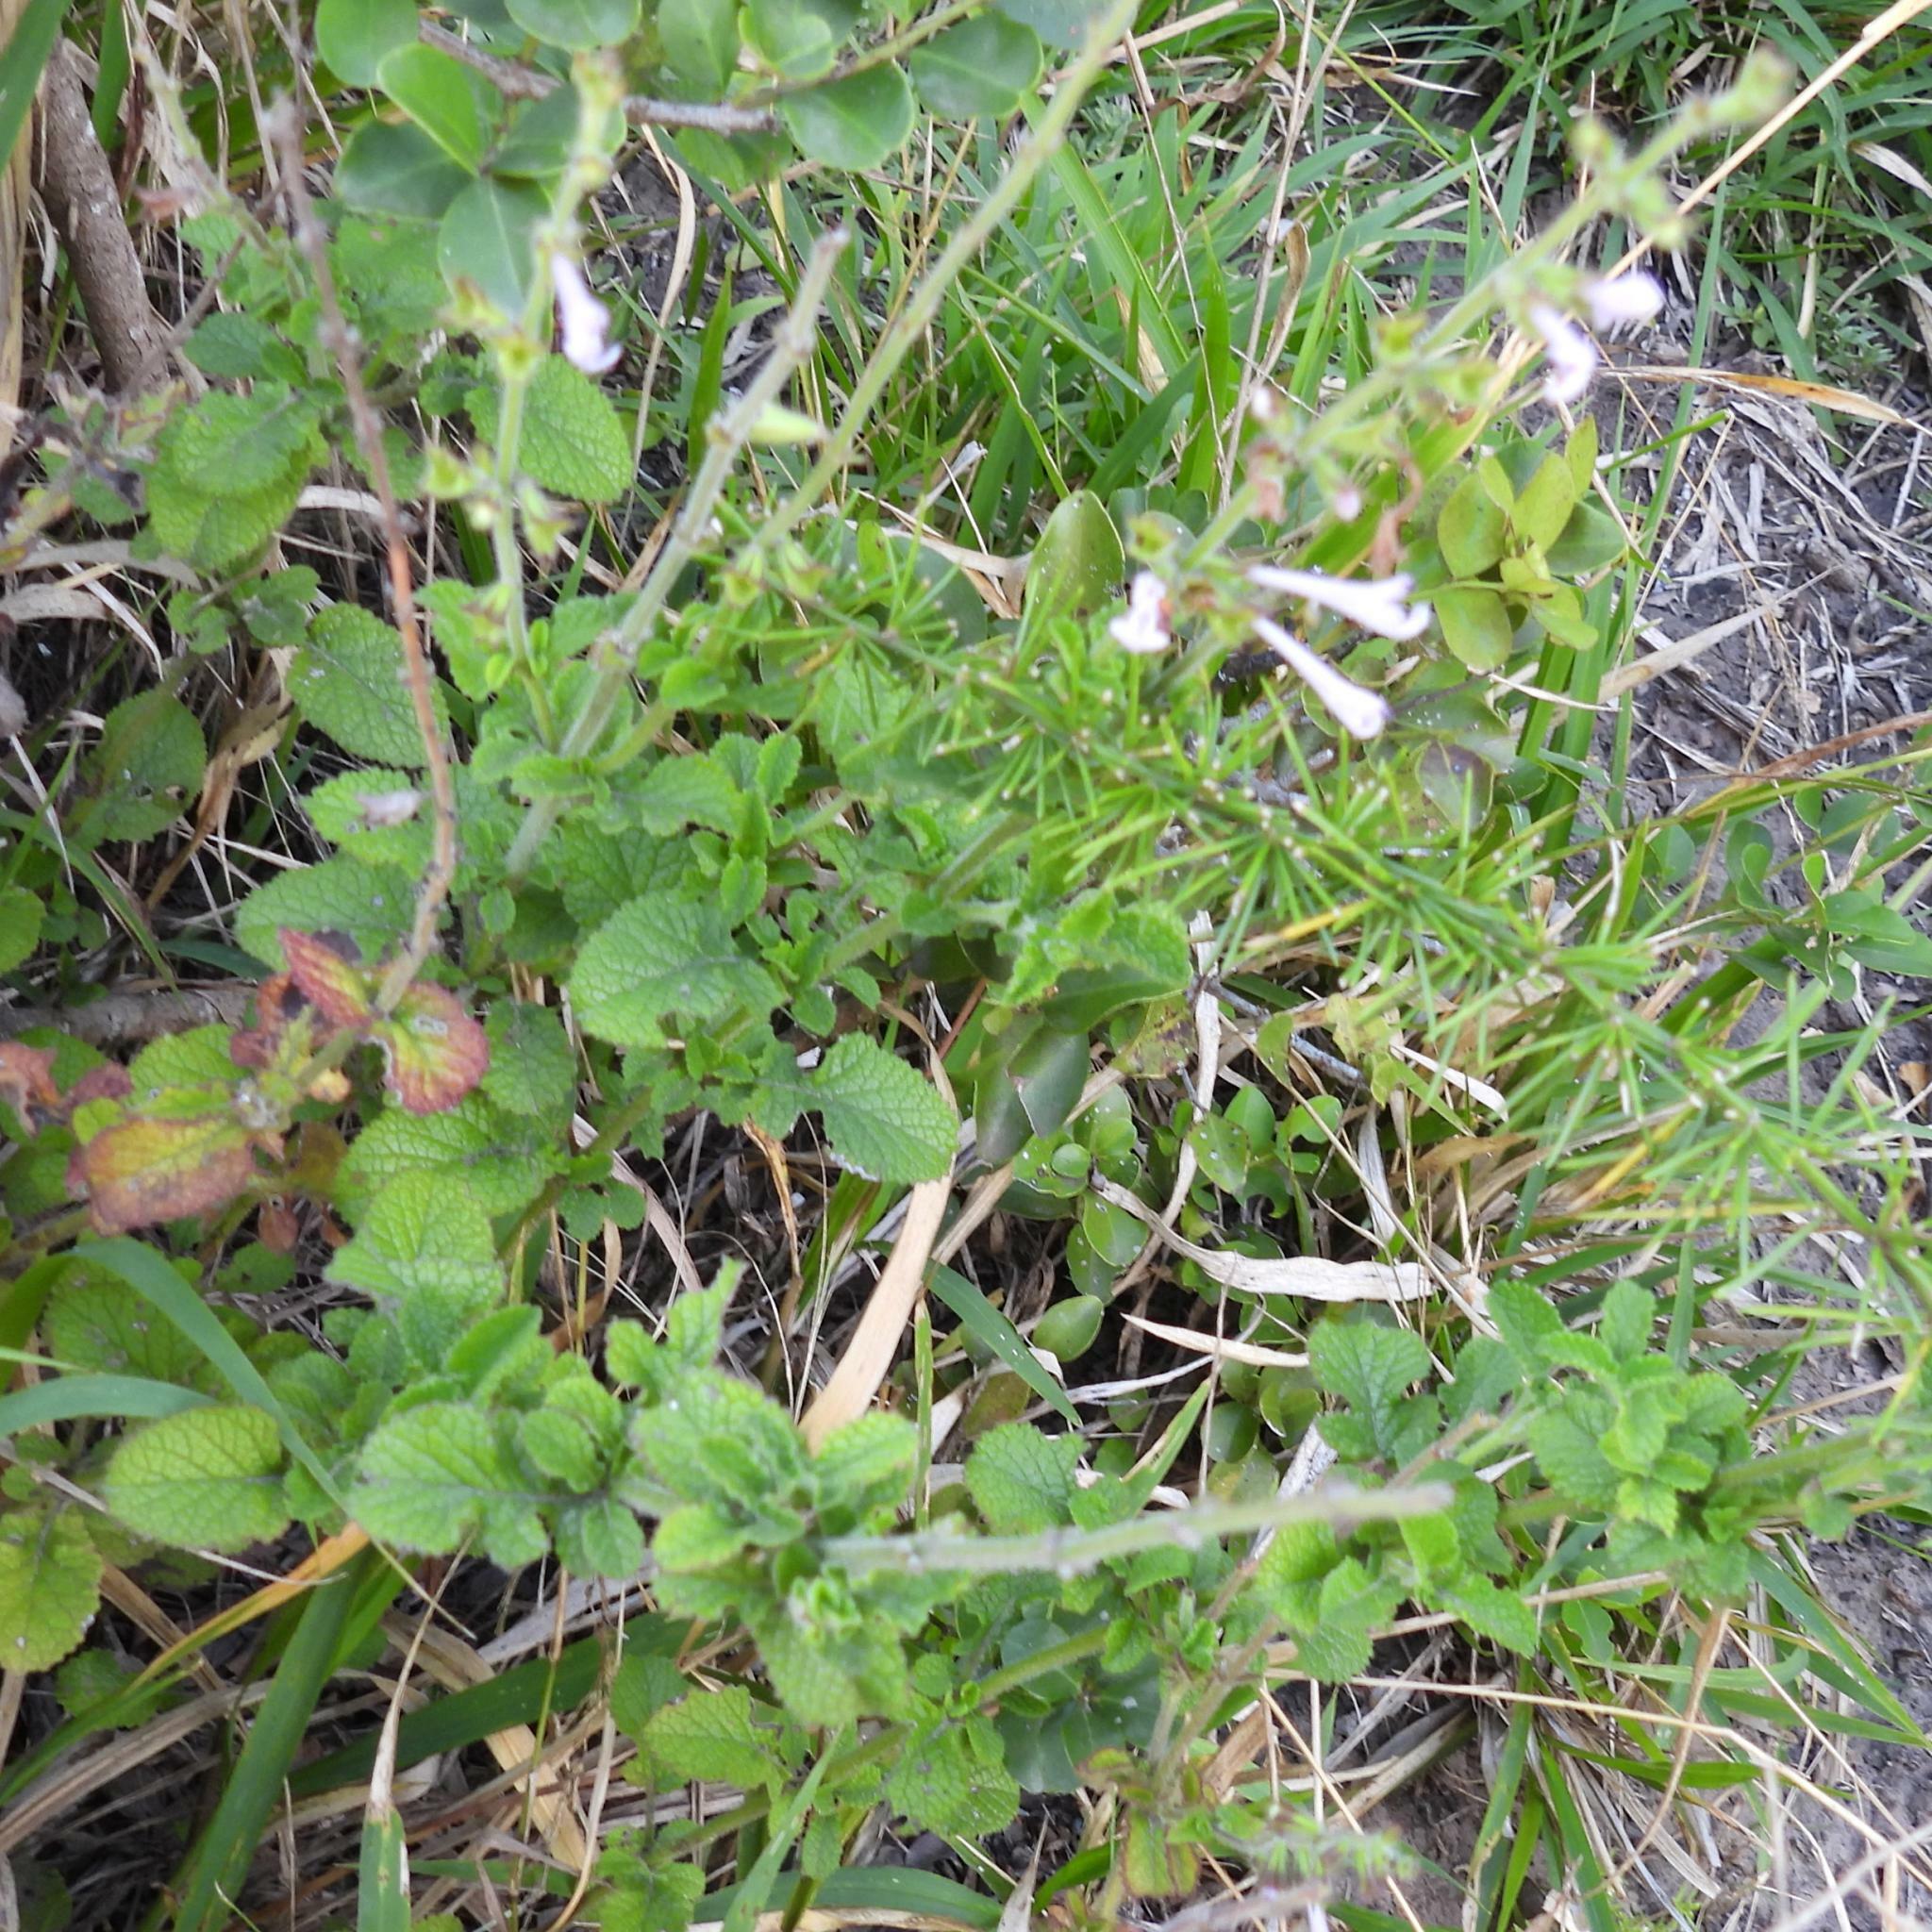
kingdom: Plantae
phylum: Tracheophyta
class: Magnoliopsida
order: Lamiales
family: Lamiaceae
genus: Salvia
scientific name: Salvia scabra
